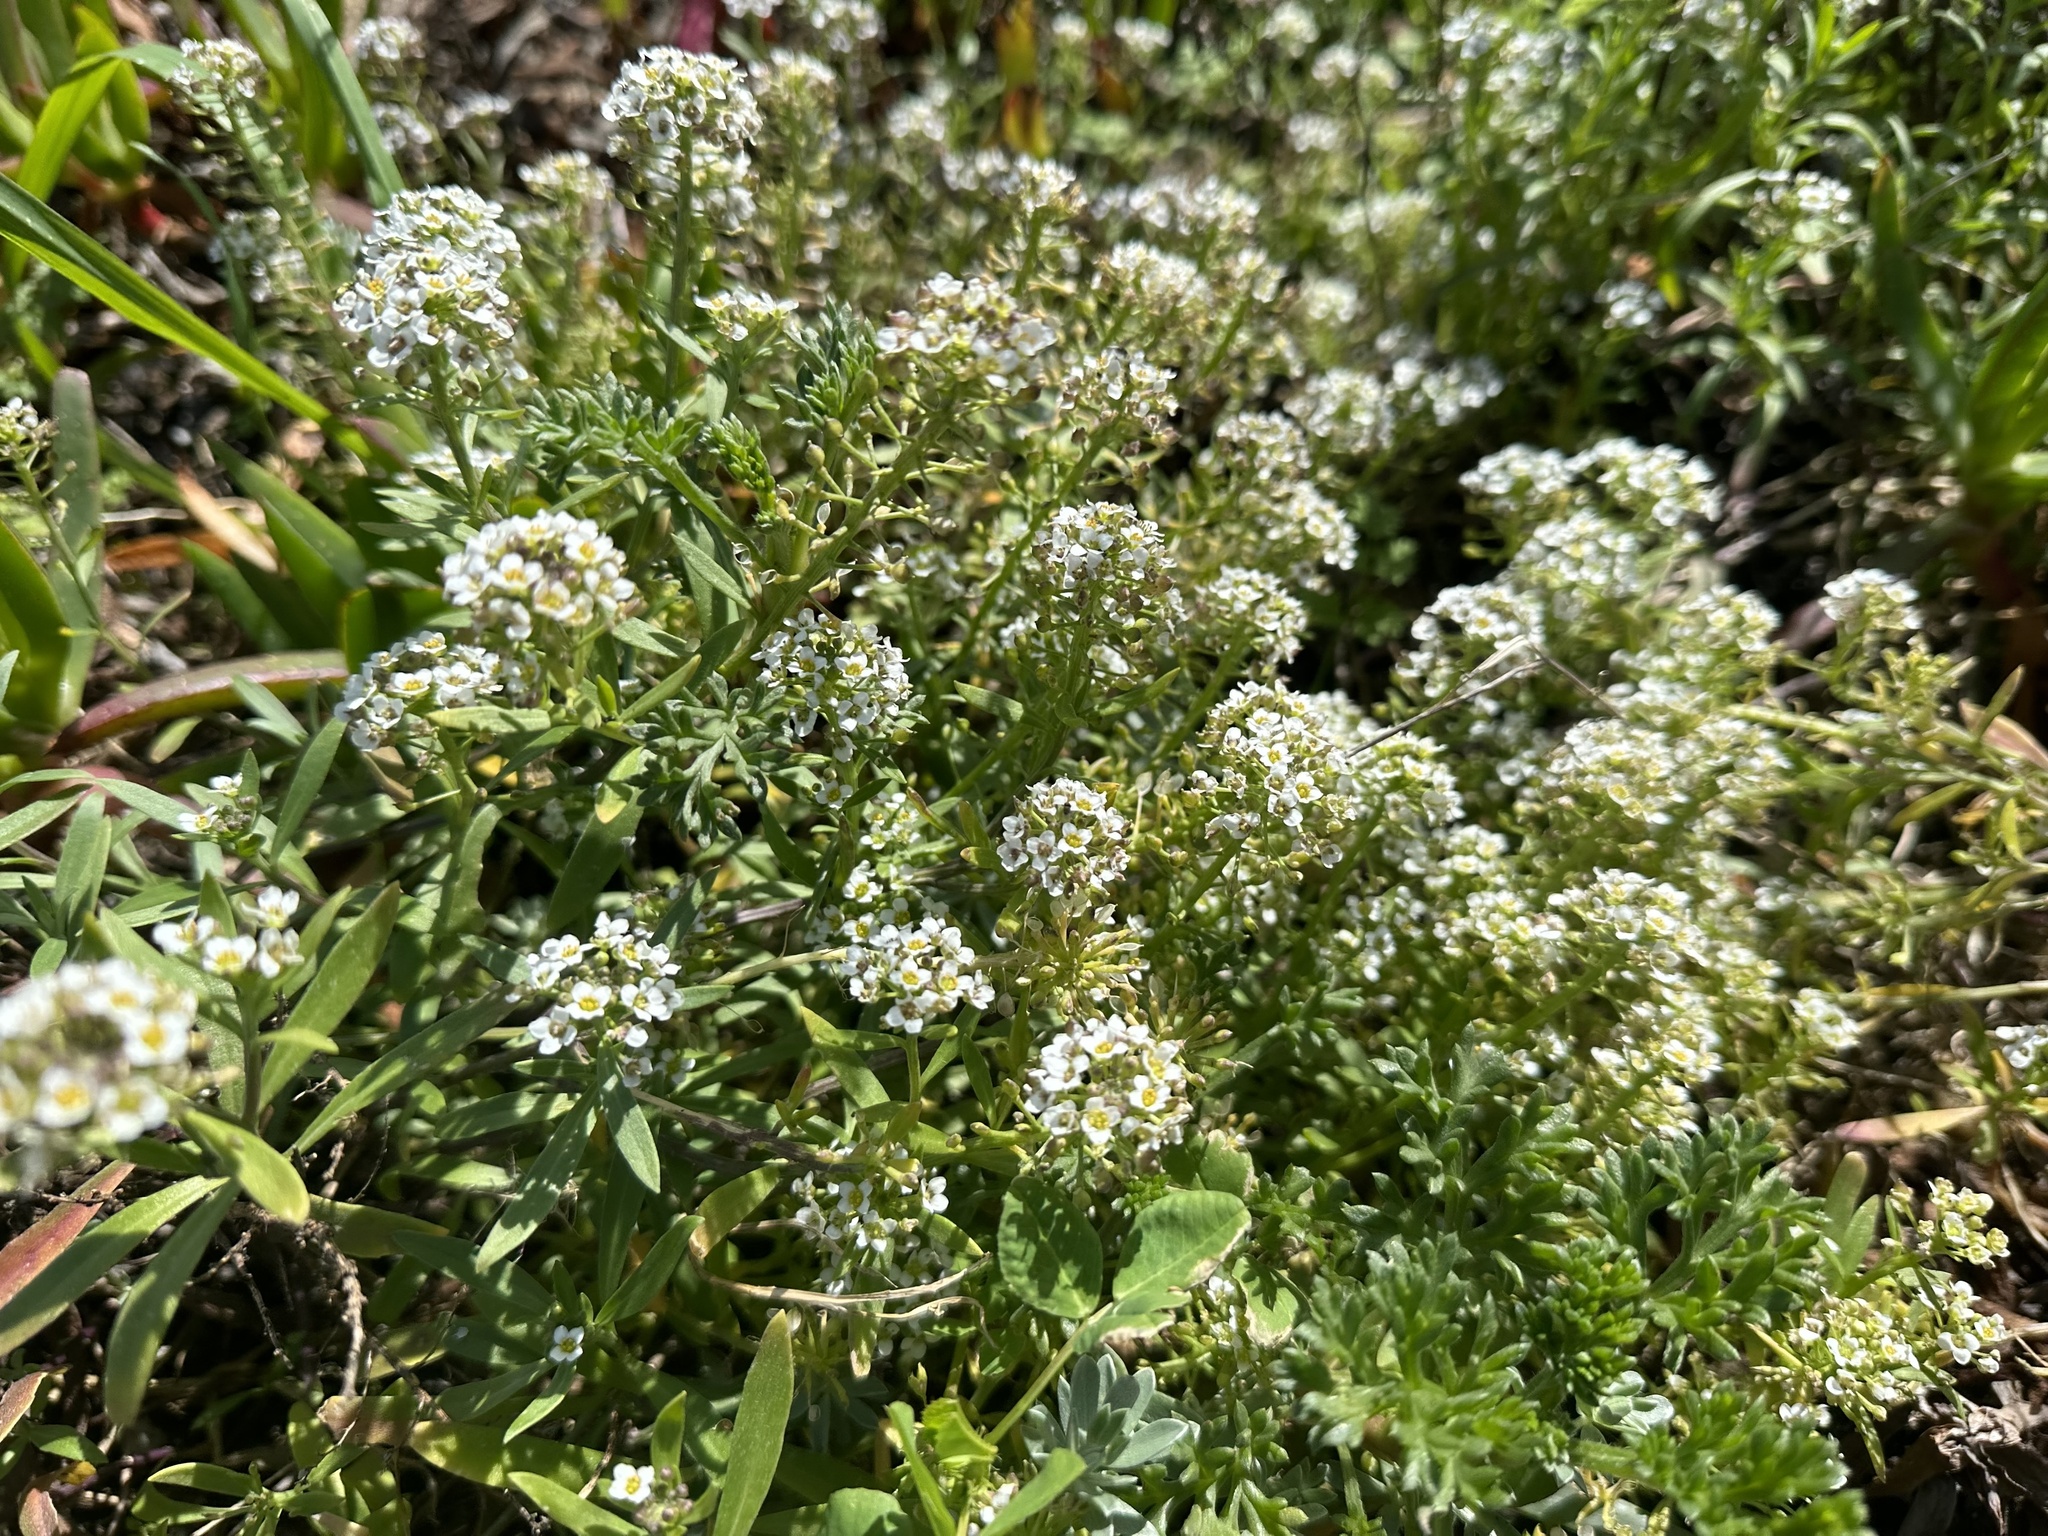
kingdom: Plantae
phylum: Tracheophyta
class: Magnoliopsida
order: Brassicales
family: Brassicaceae
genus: Lobularia
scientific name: Lobularia maritima
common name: Sweet alison
